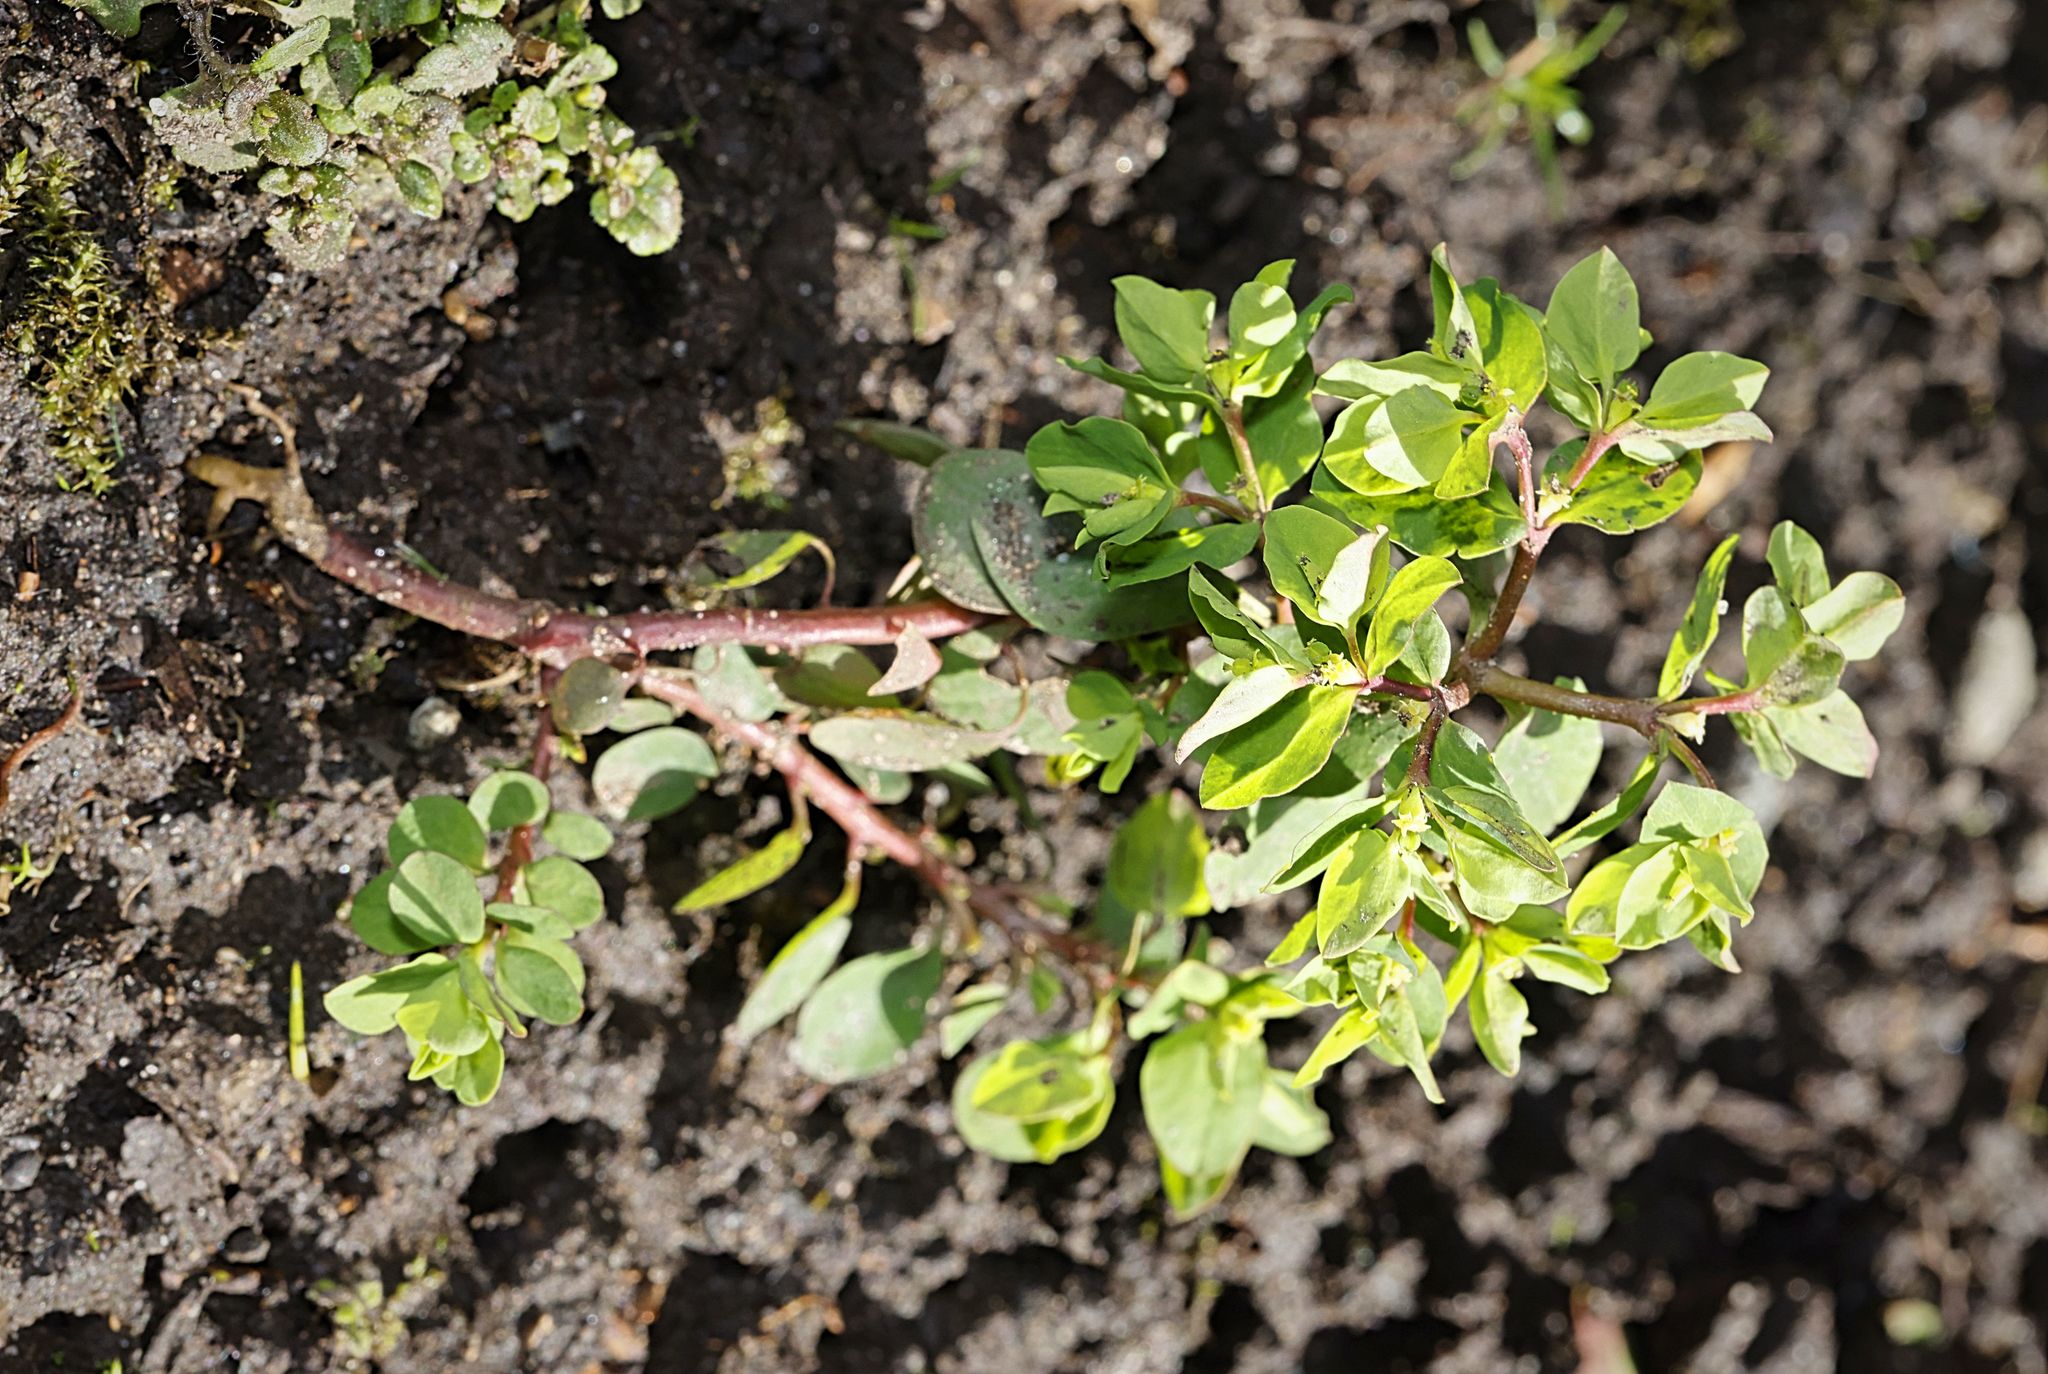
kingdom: Plantae
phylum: Tracheophyta
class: Magnoliopsida
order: Malpighiales
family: Euphorbiaceae
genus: Euphorbia
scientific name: Euphorbia peplus
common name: Petty spurge
